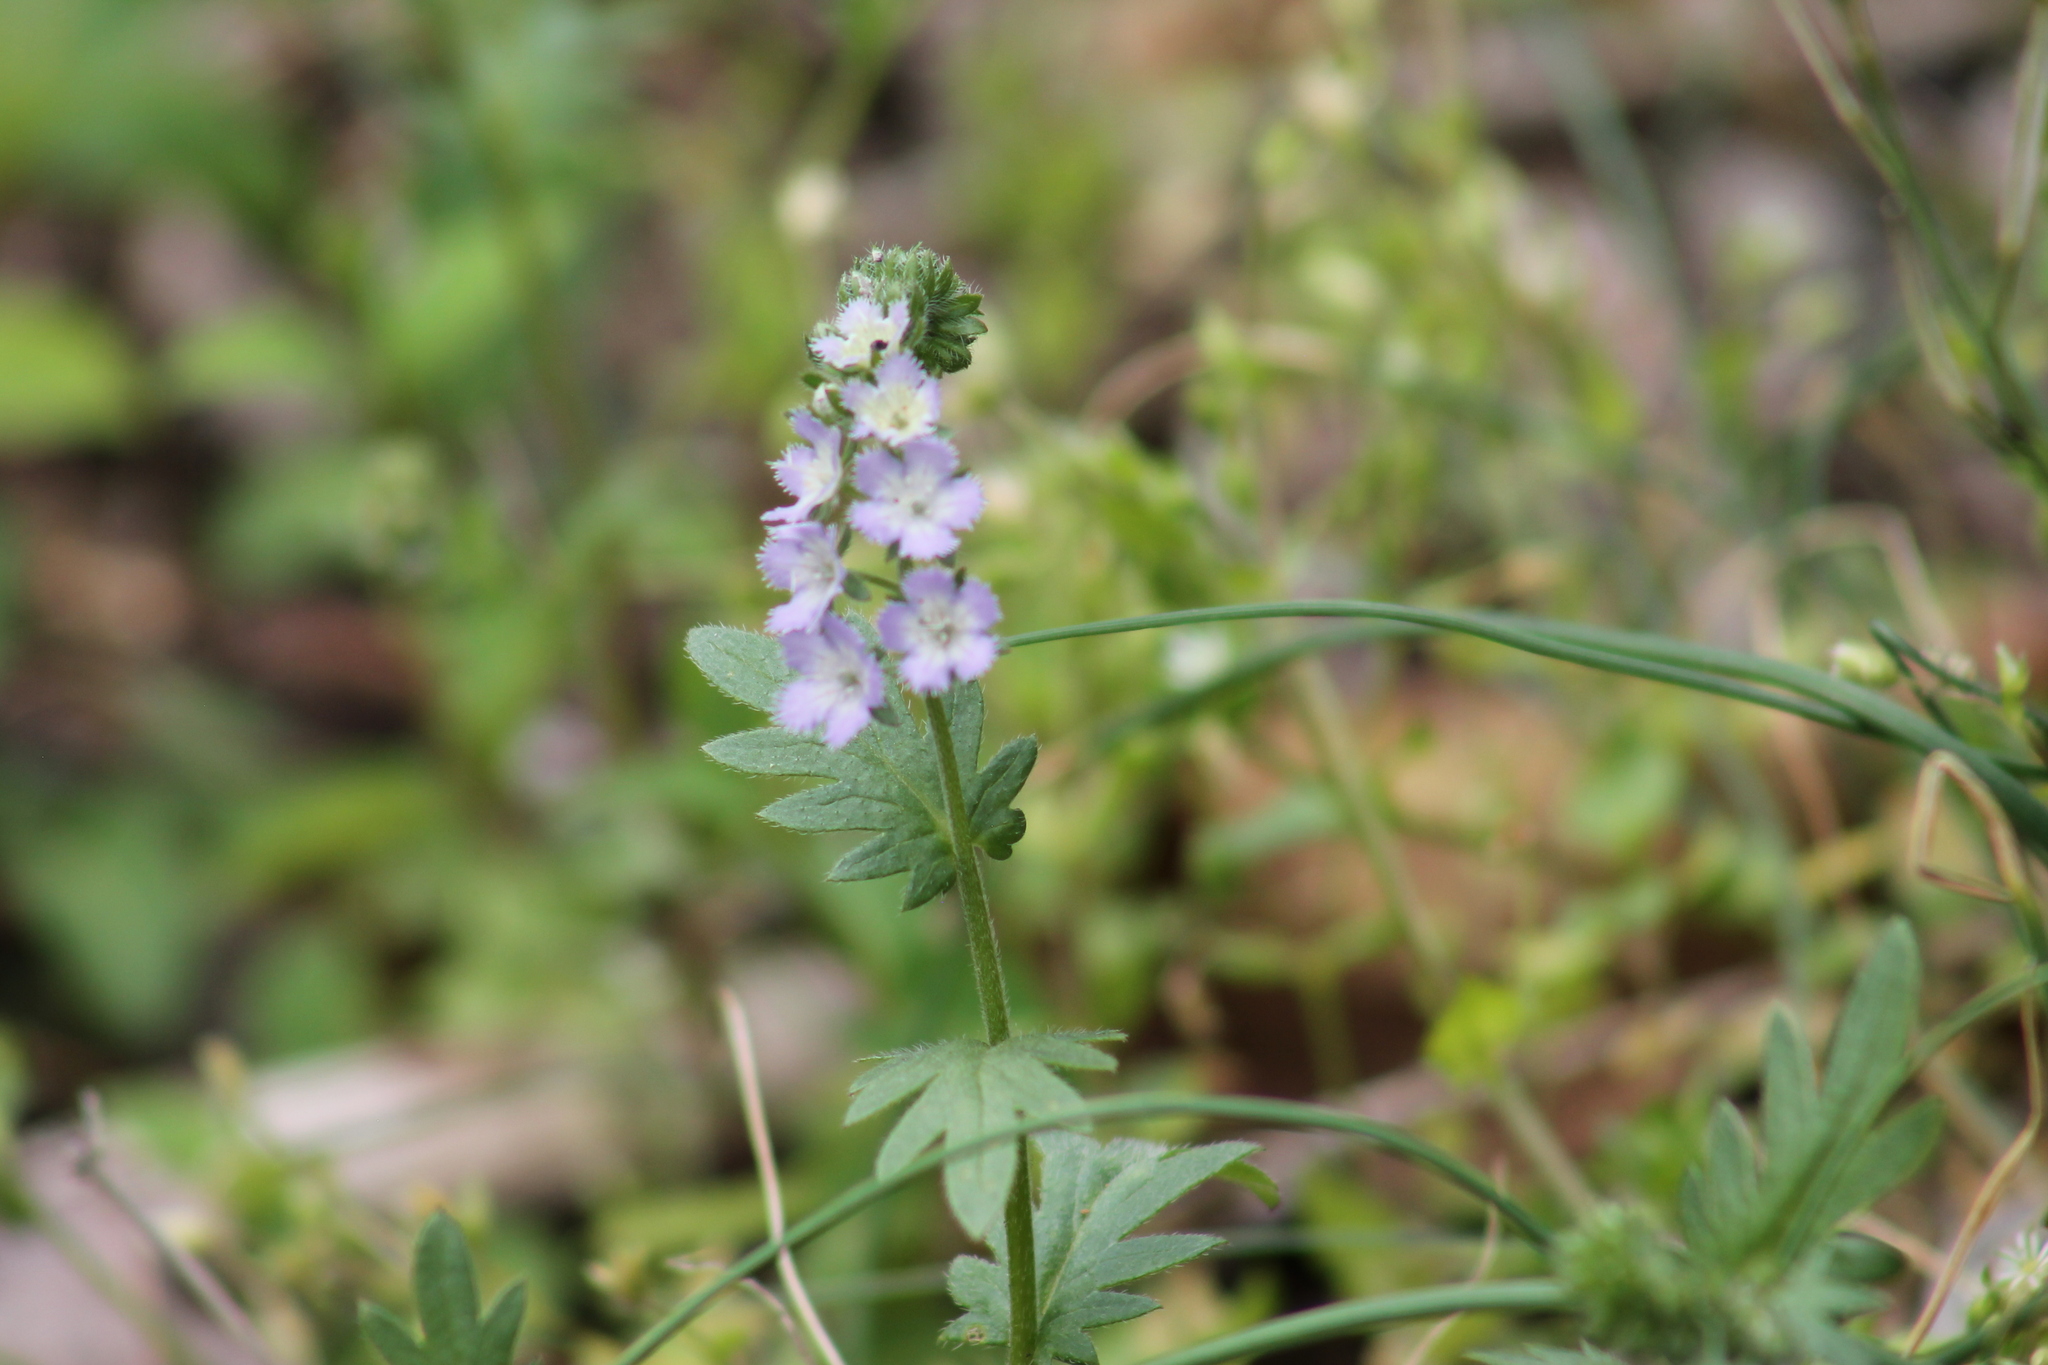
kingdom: Plantae
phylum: Tracheophyta
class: Magnoliopsida
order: Boraginales
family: Hydrophyllaceae
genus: Phacelia
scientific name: Phacelia purshii
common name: Miami-mist
